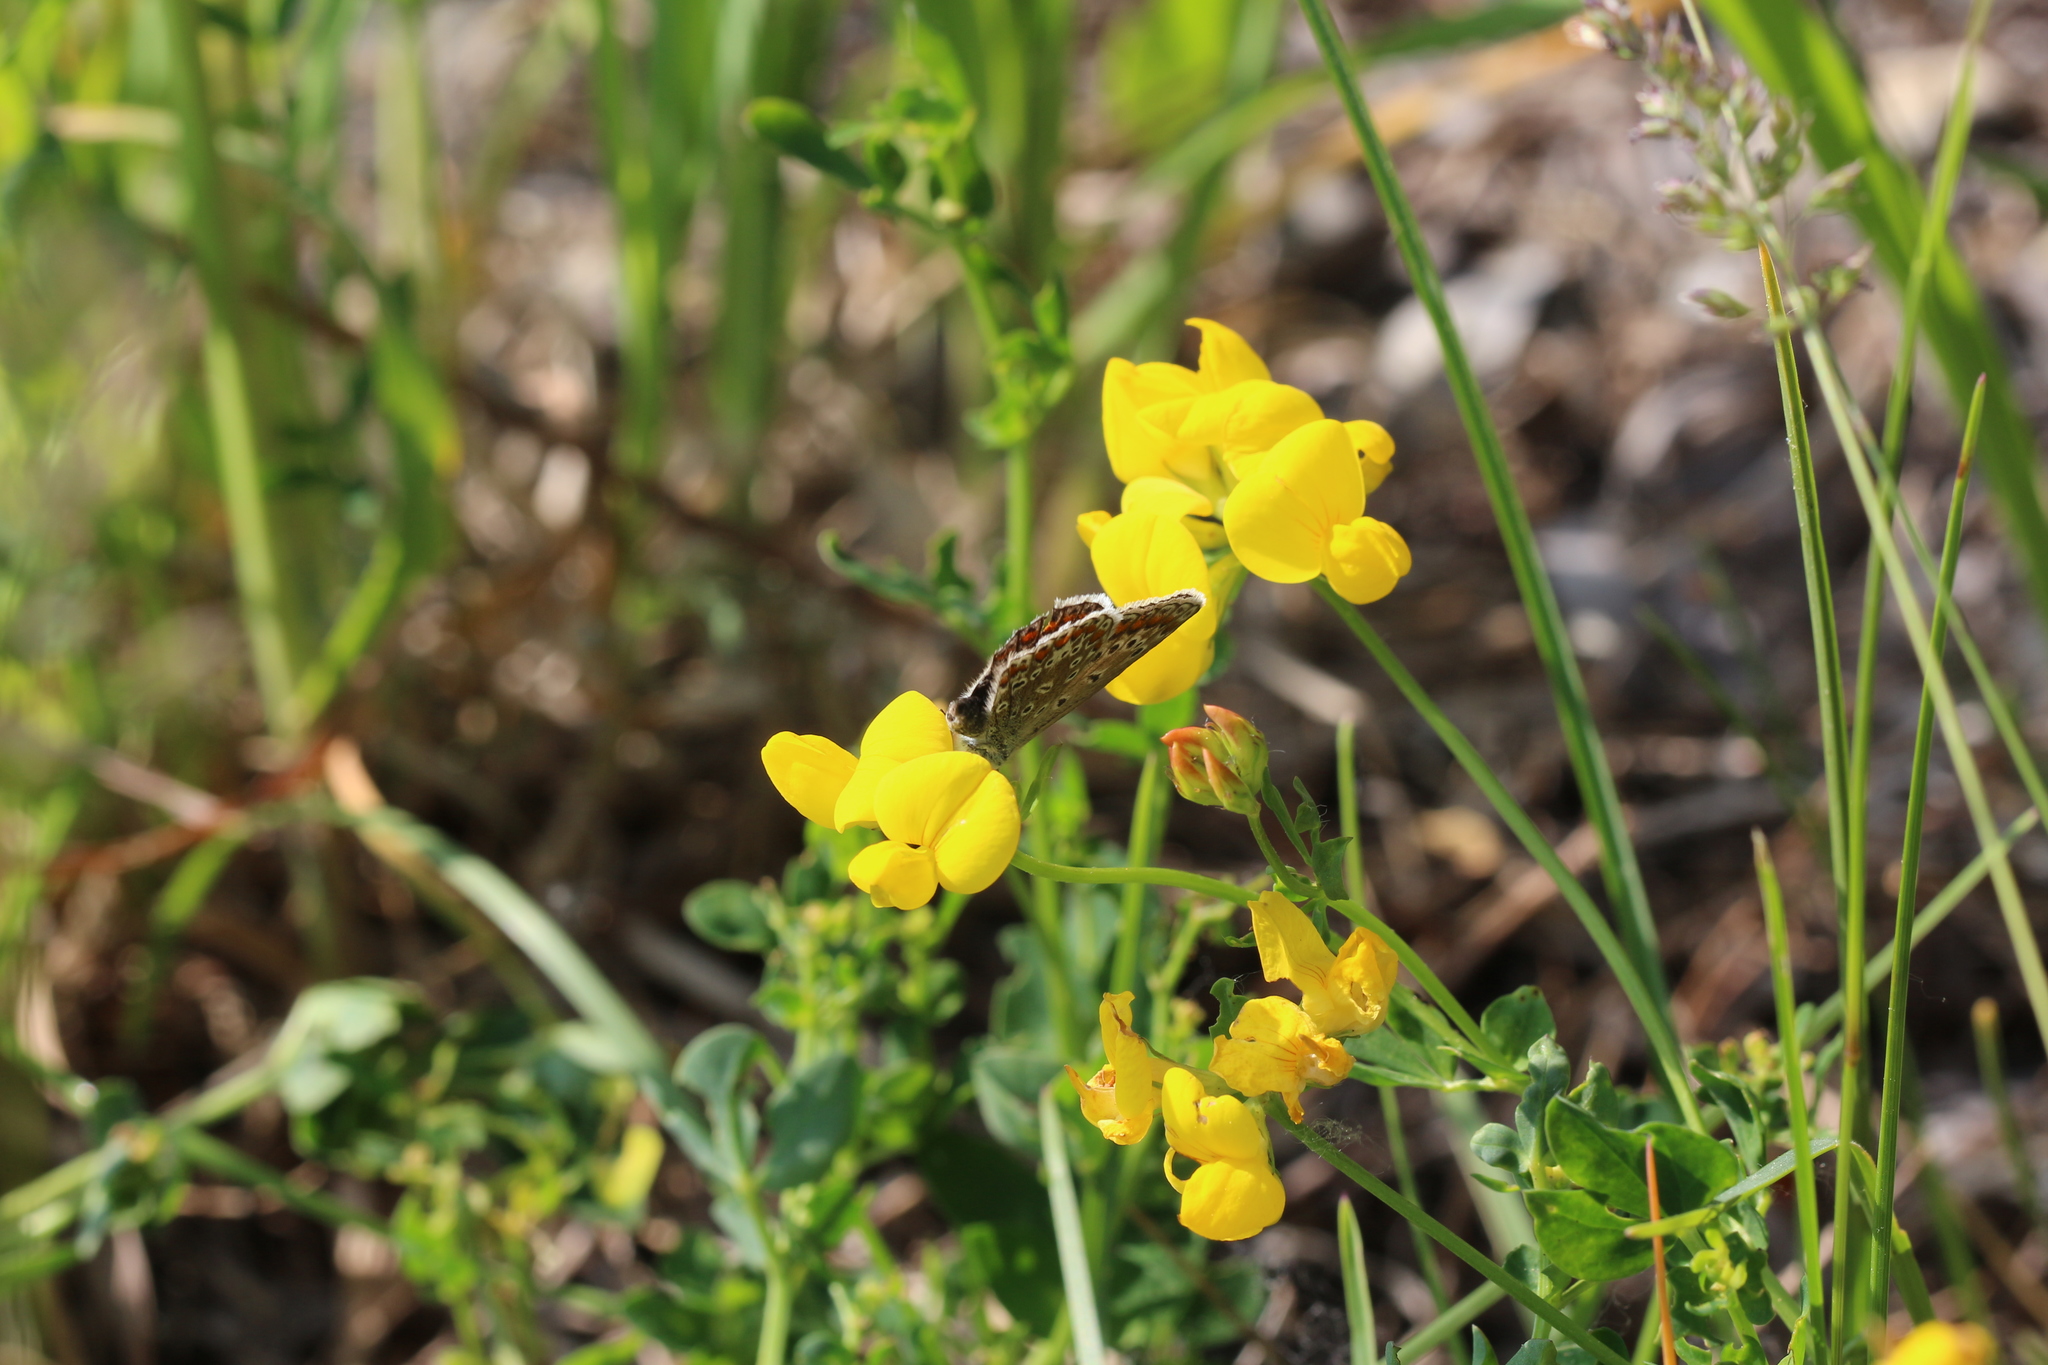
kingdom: Animalia
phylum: Arthropoda
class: Insecta
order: Lepidoptera
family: Lycaenidae
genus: Polyommatus
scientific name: Polyommatus icarus
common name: Common blue
